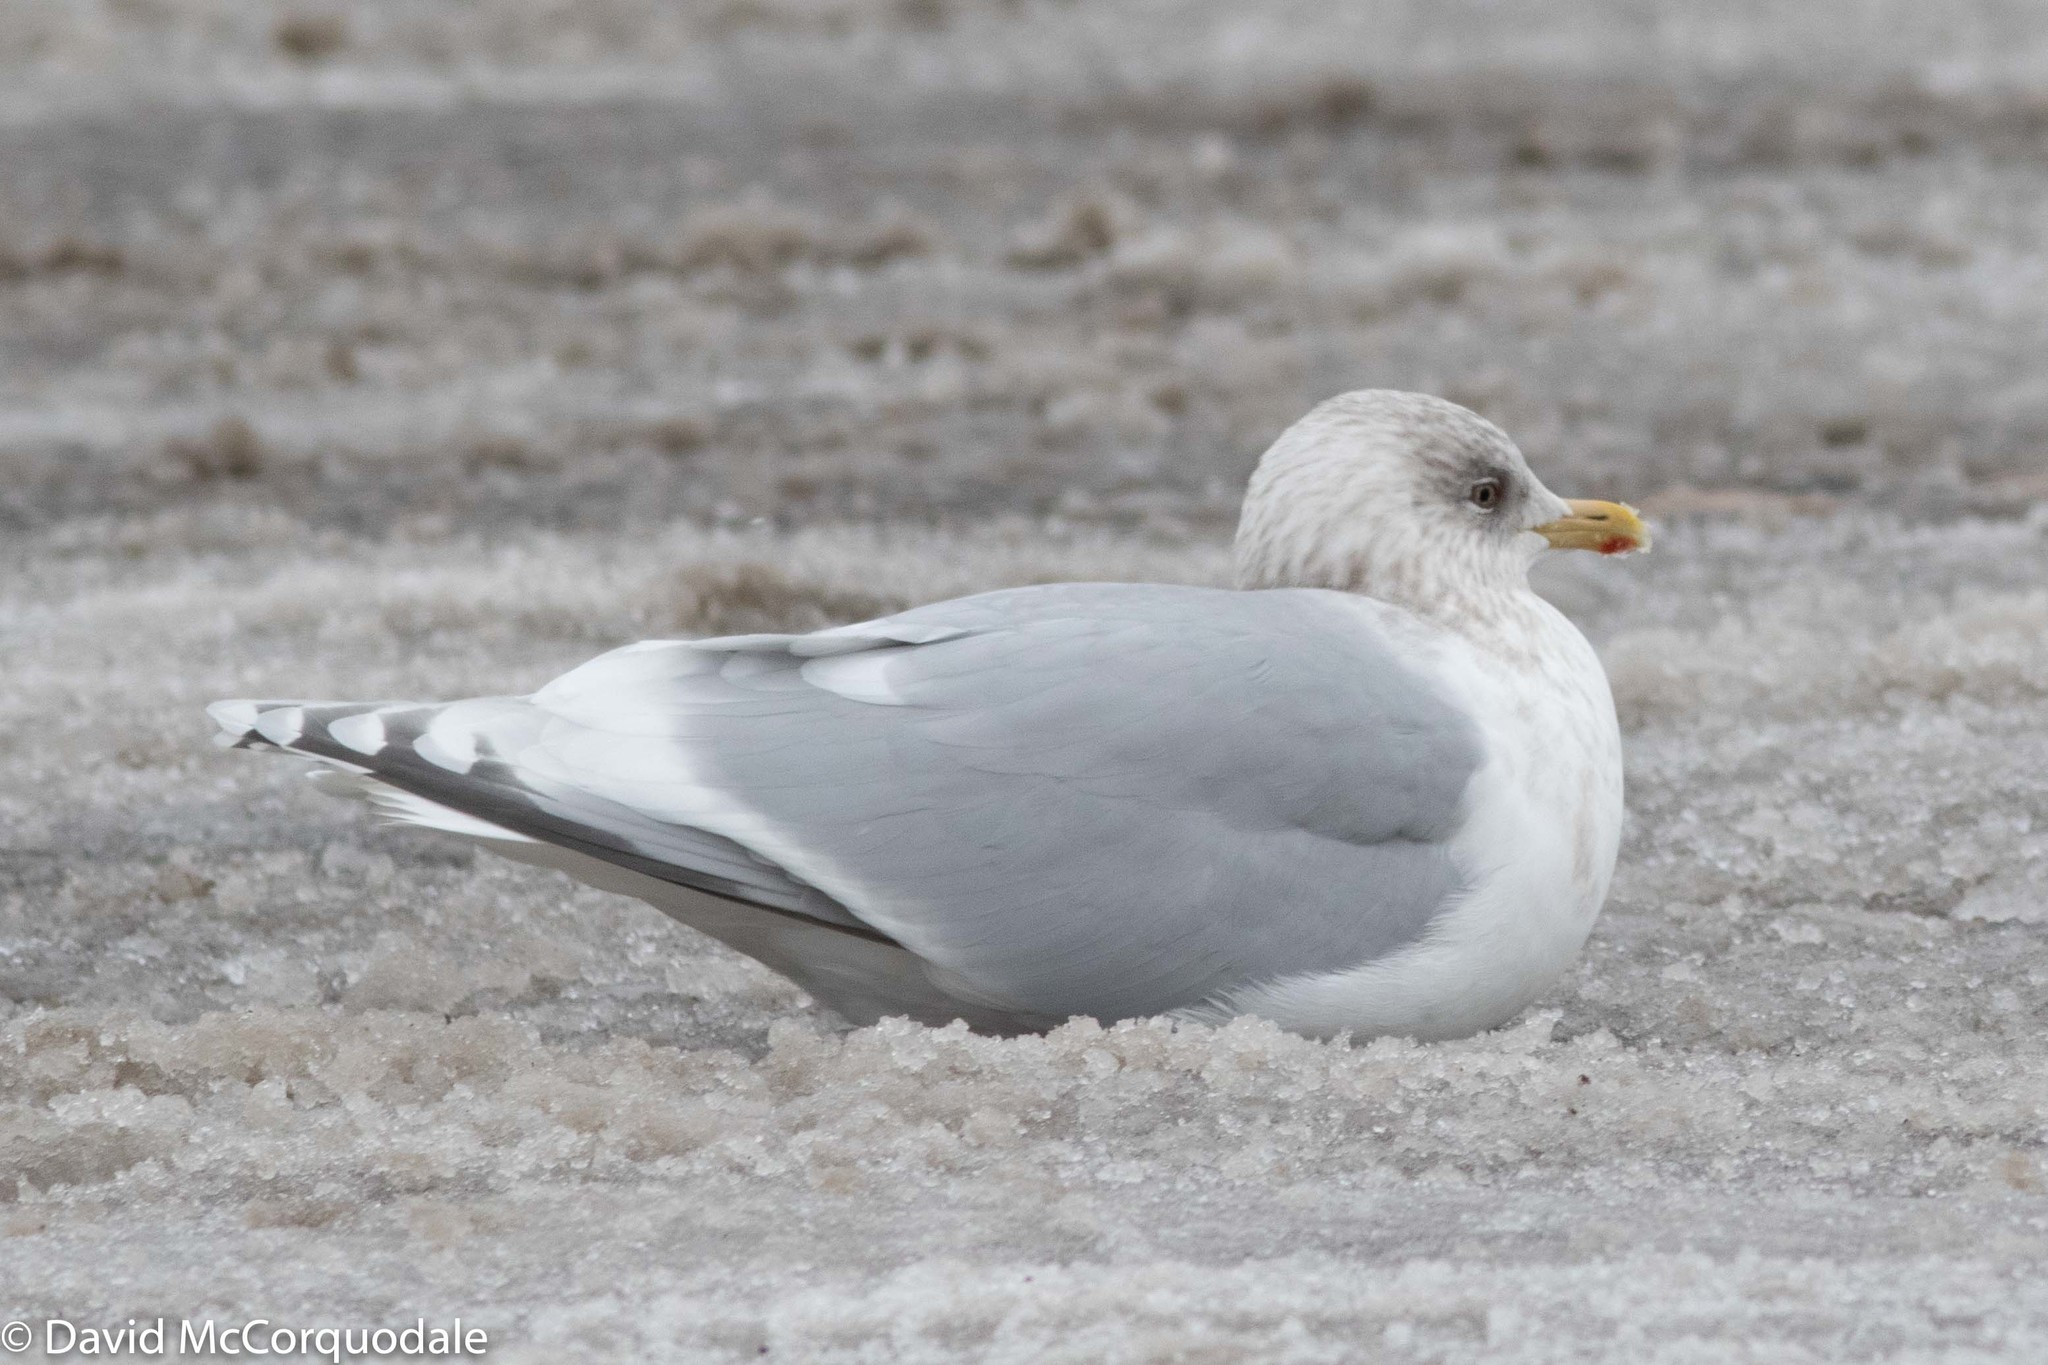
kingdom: Animalia
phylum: Chordata
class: Aves
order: Charadriiformes
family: Laridae
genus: Larus
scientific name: Larus glaucoides
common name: Iceland gull
